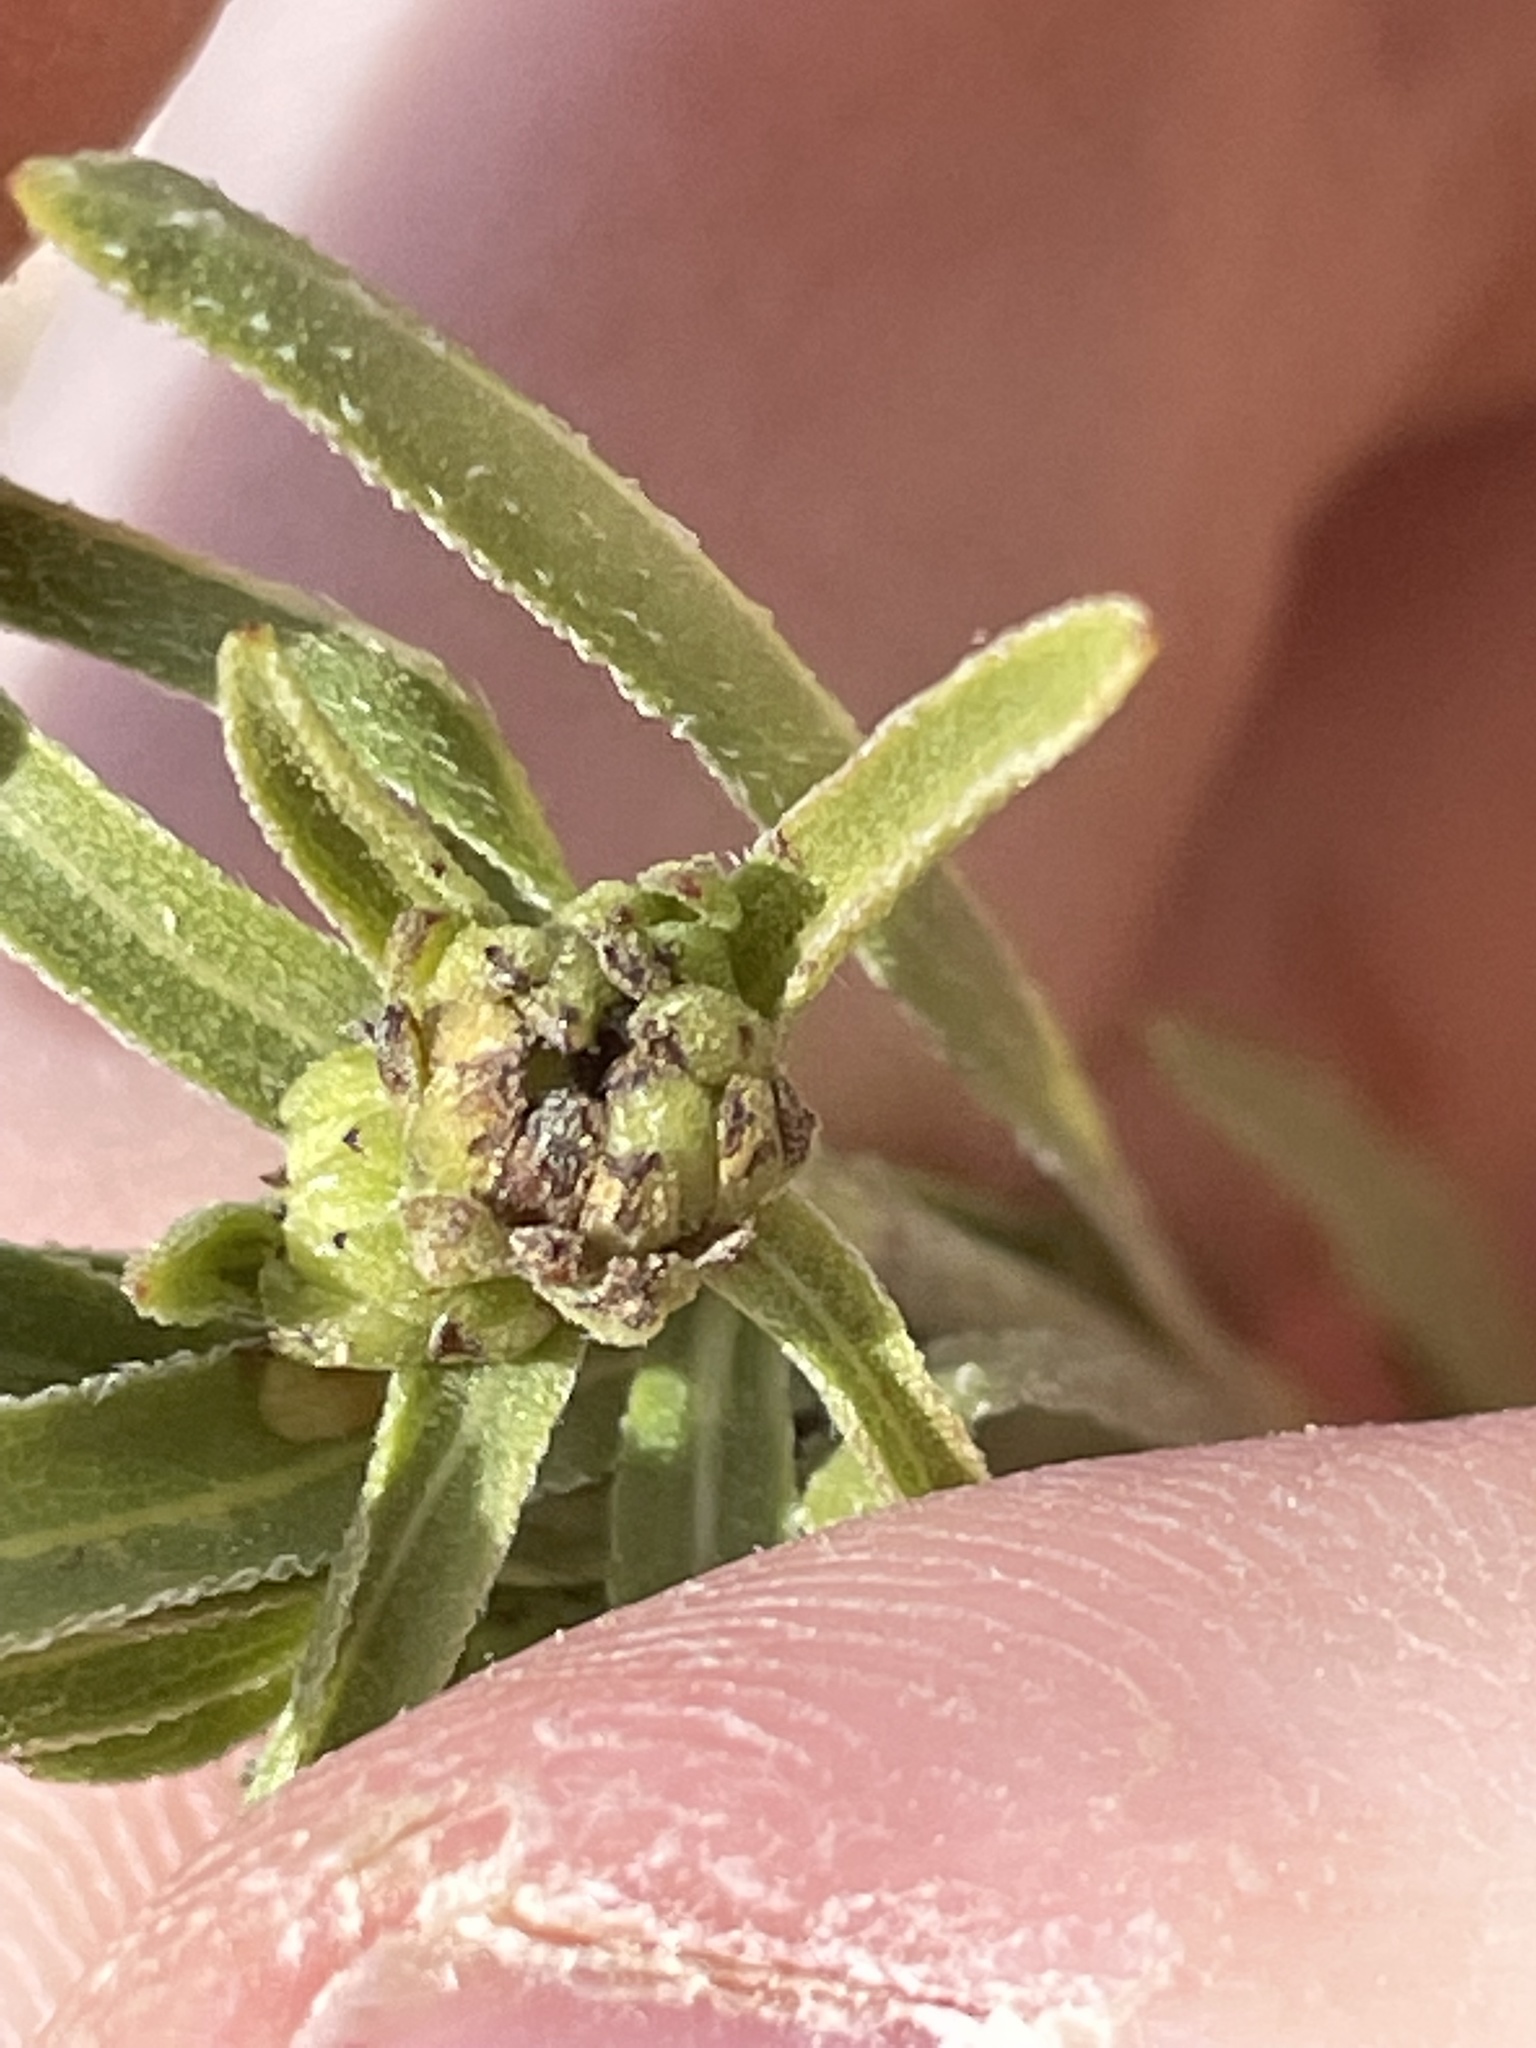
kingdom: Plantae
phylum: Tracheophyta
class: Magnoliopsida
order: Asterales
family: Asteraceae
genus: Helianthella
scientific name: Helianthella microcephala
